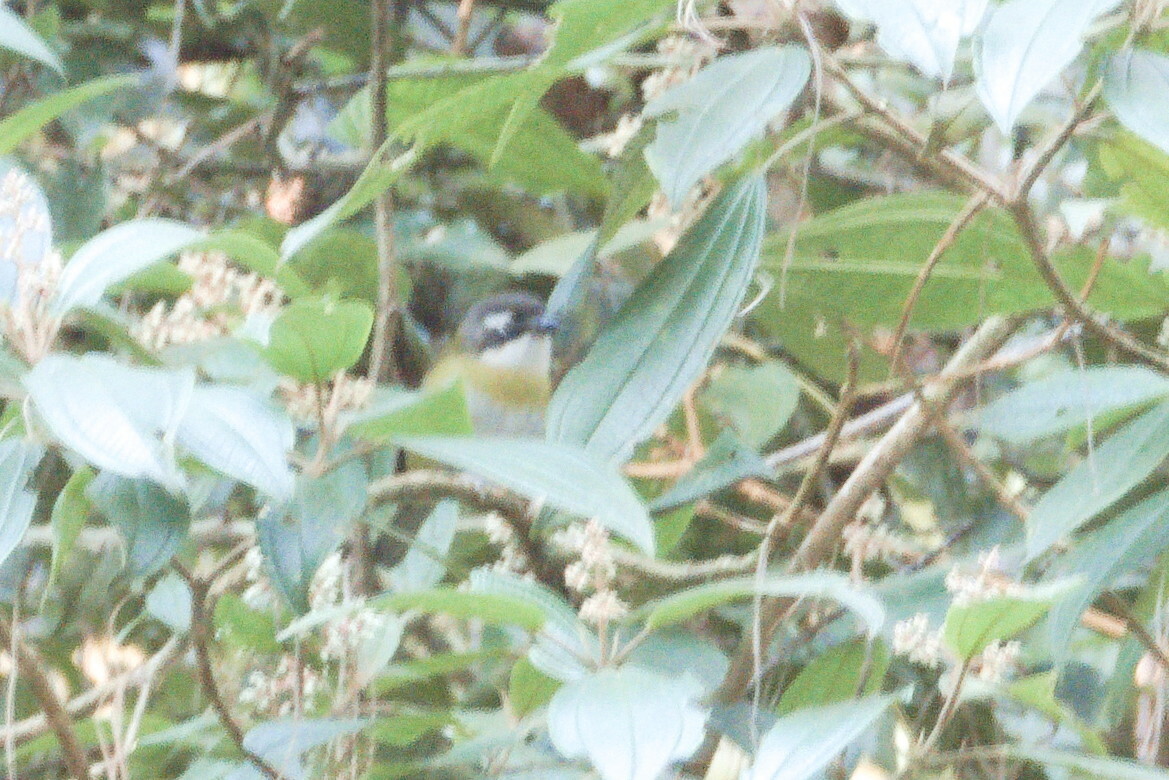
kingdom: Animalia
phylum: Chordata
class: Aves
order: Passeriformes
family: Passerellidae
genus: Chlorospingus
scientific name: Chlorospingus flavopectus
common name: Common chlorospingus
